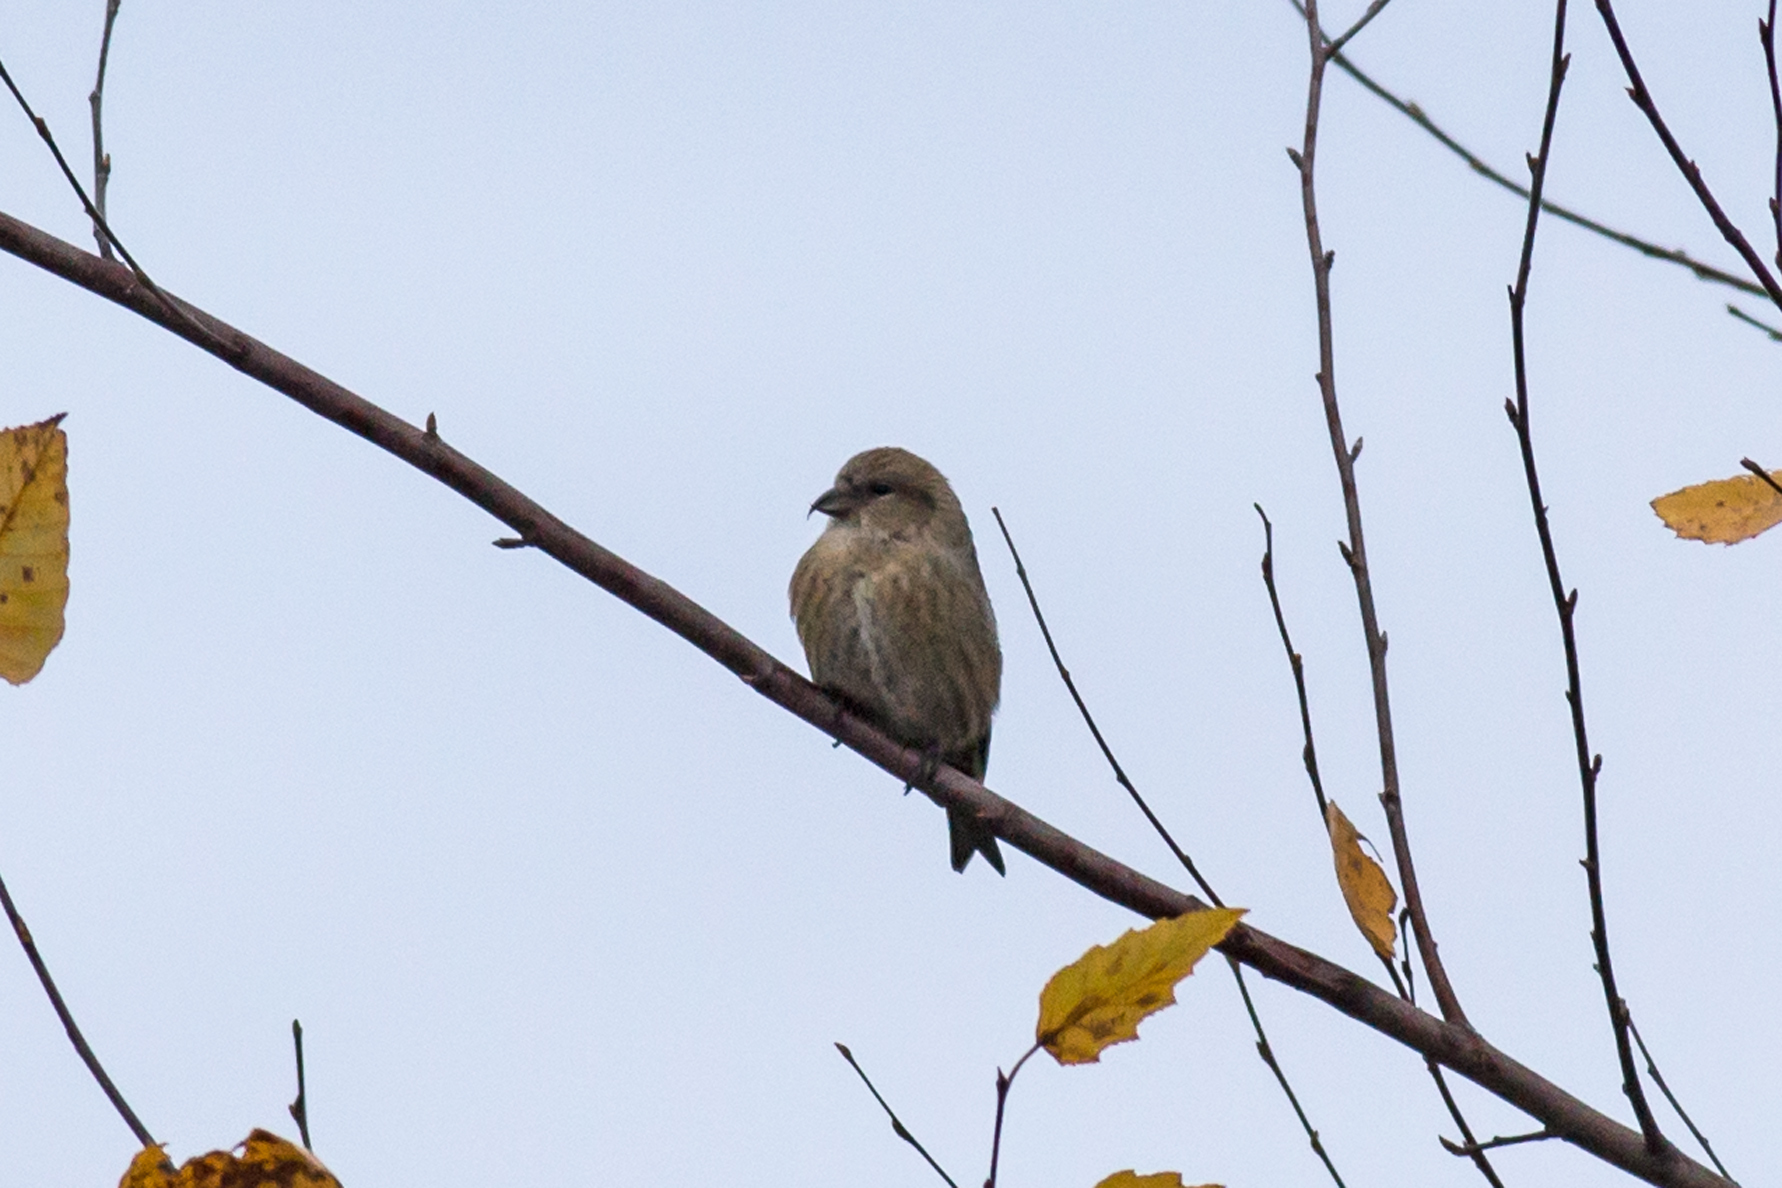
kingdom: Animalia
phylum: Chordata
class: Aves
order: Passeriformes
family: Fringillidae
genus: Loxia
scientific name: Loxia leucoptera
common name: Two-barred crossbill
